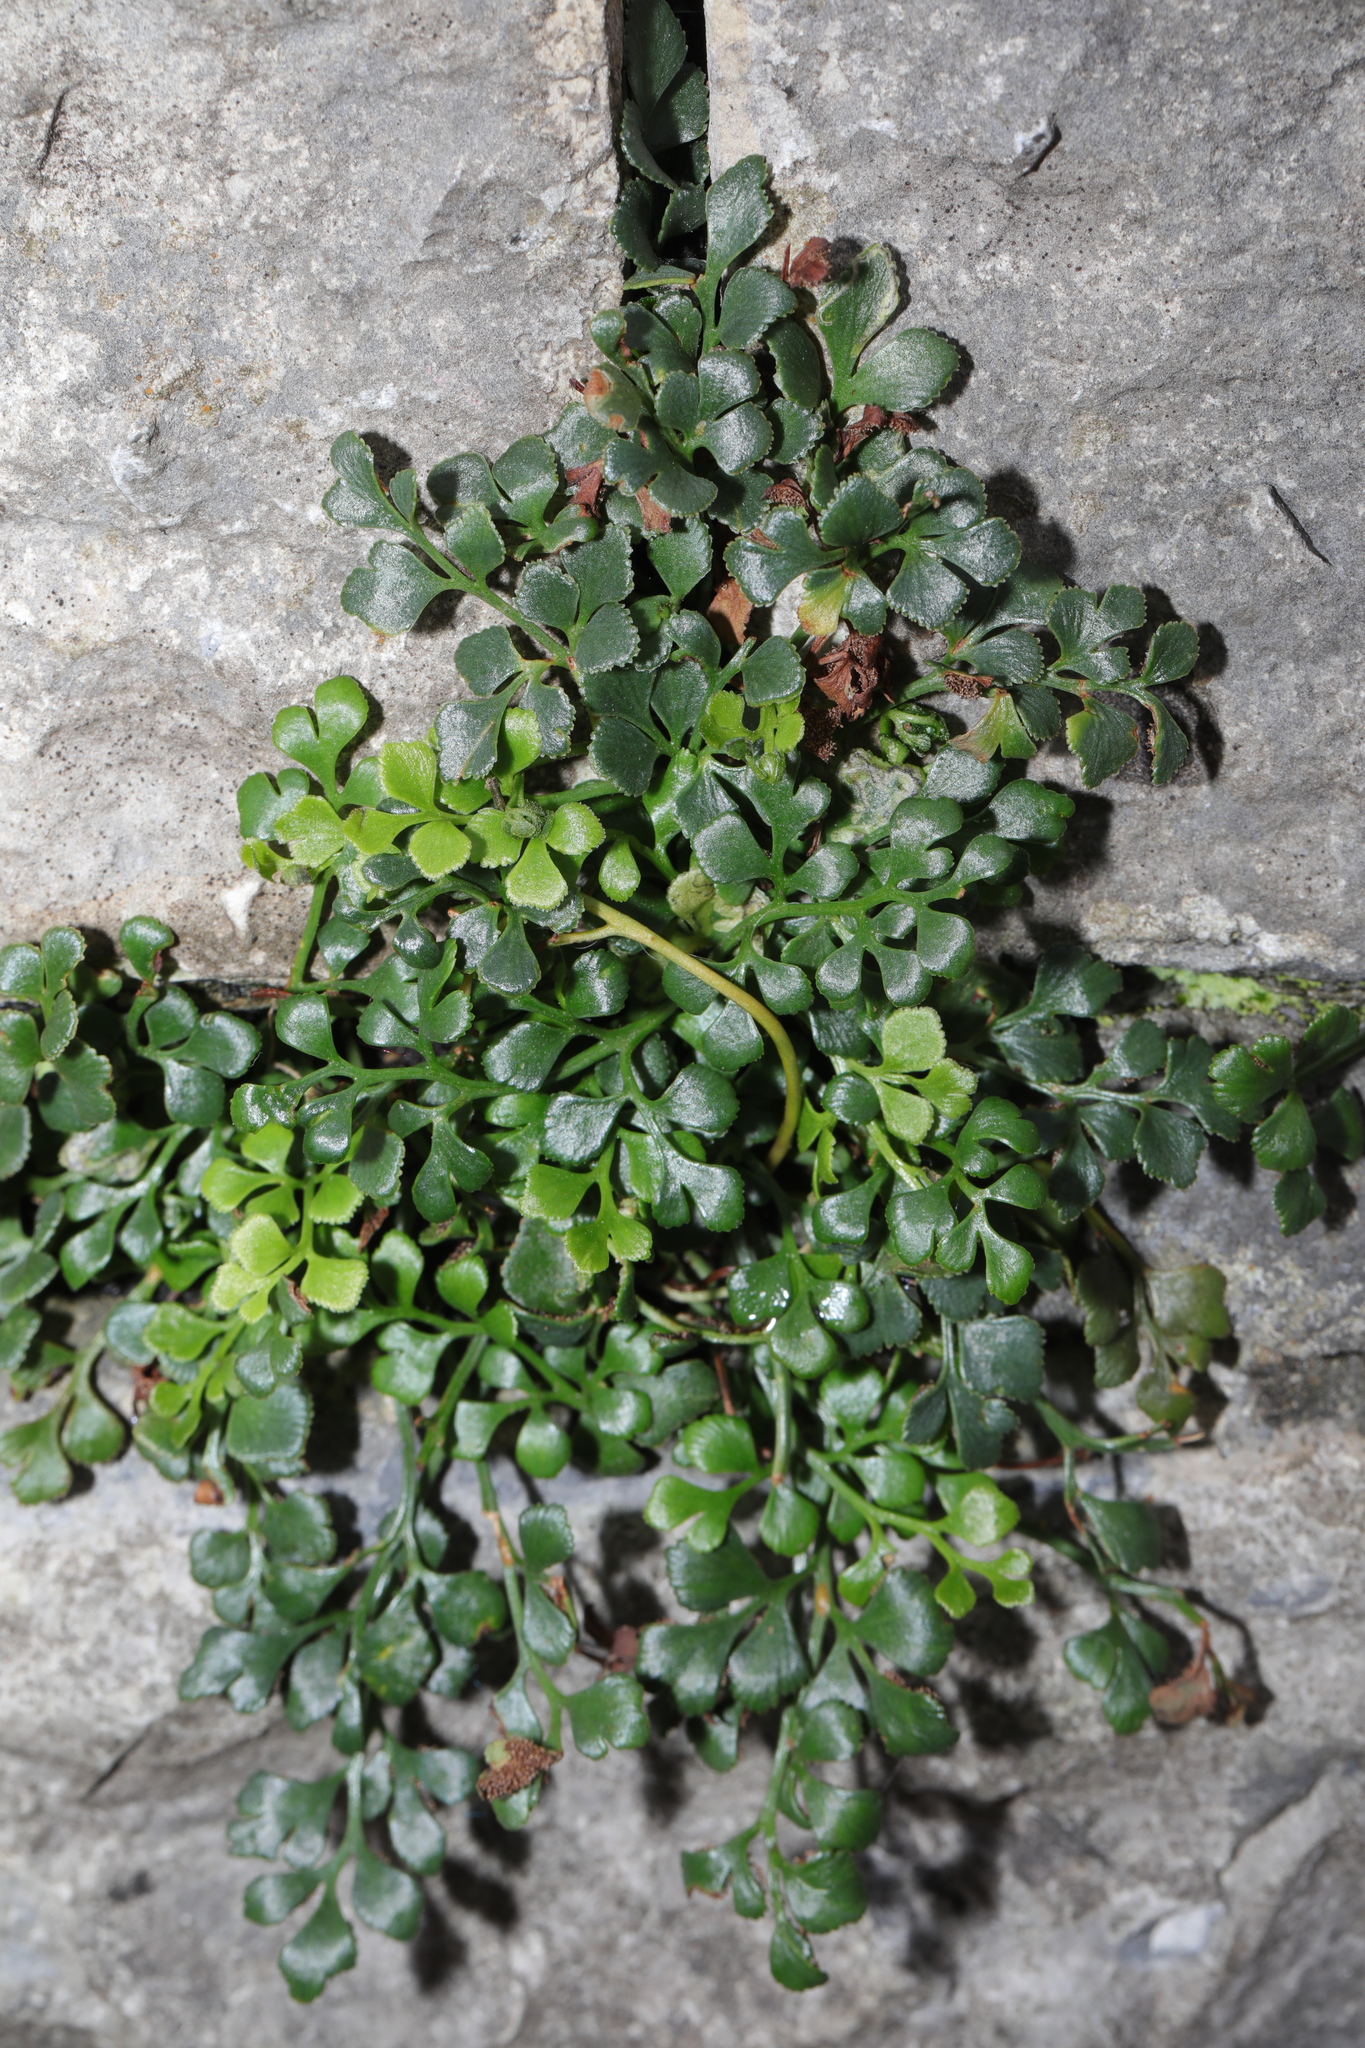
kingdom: Plantae
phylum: Tracheophyta
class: Polypodiopsida
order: Polypodiales
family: Aspleniaceae
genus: Asplenium
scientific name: Asplenium ruta-muraria
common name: Wall-rue
